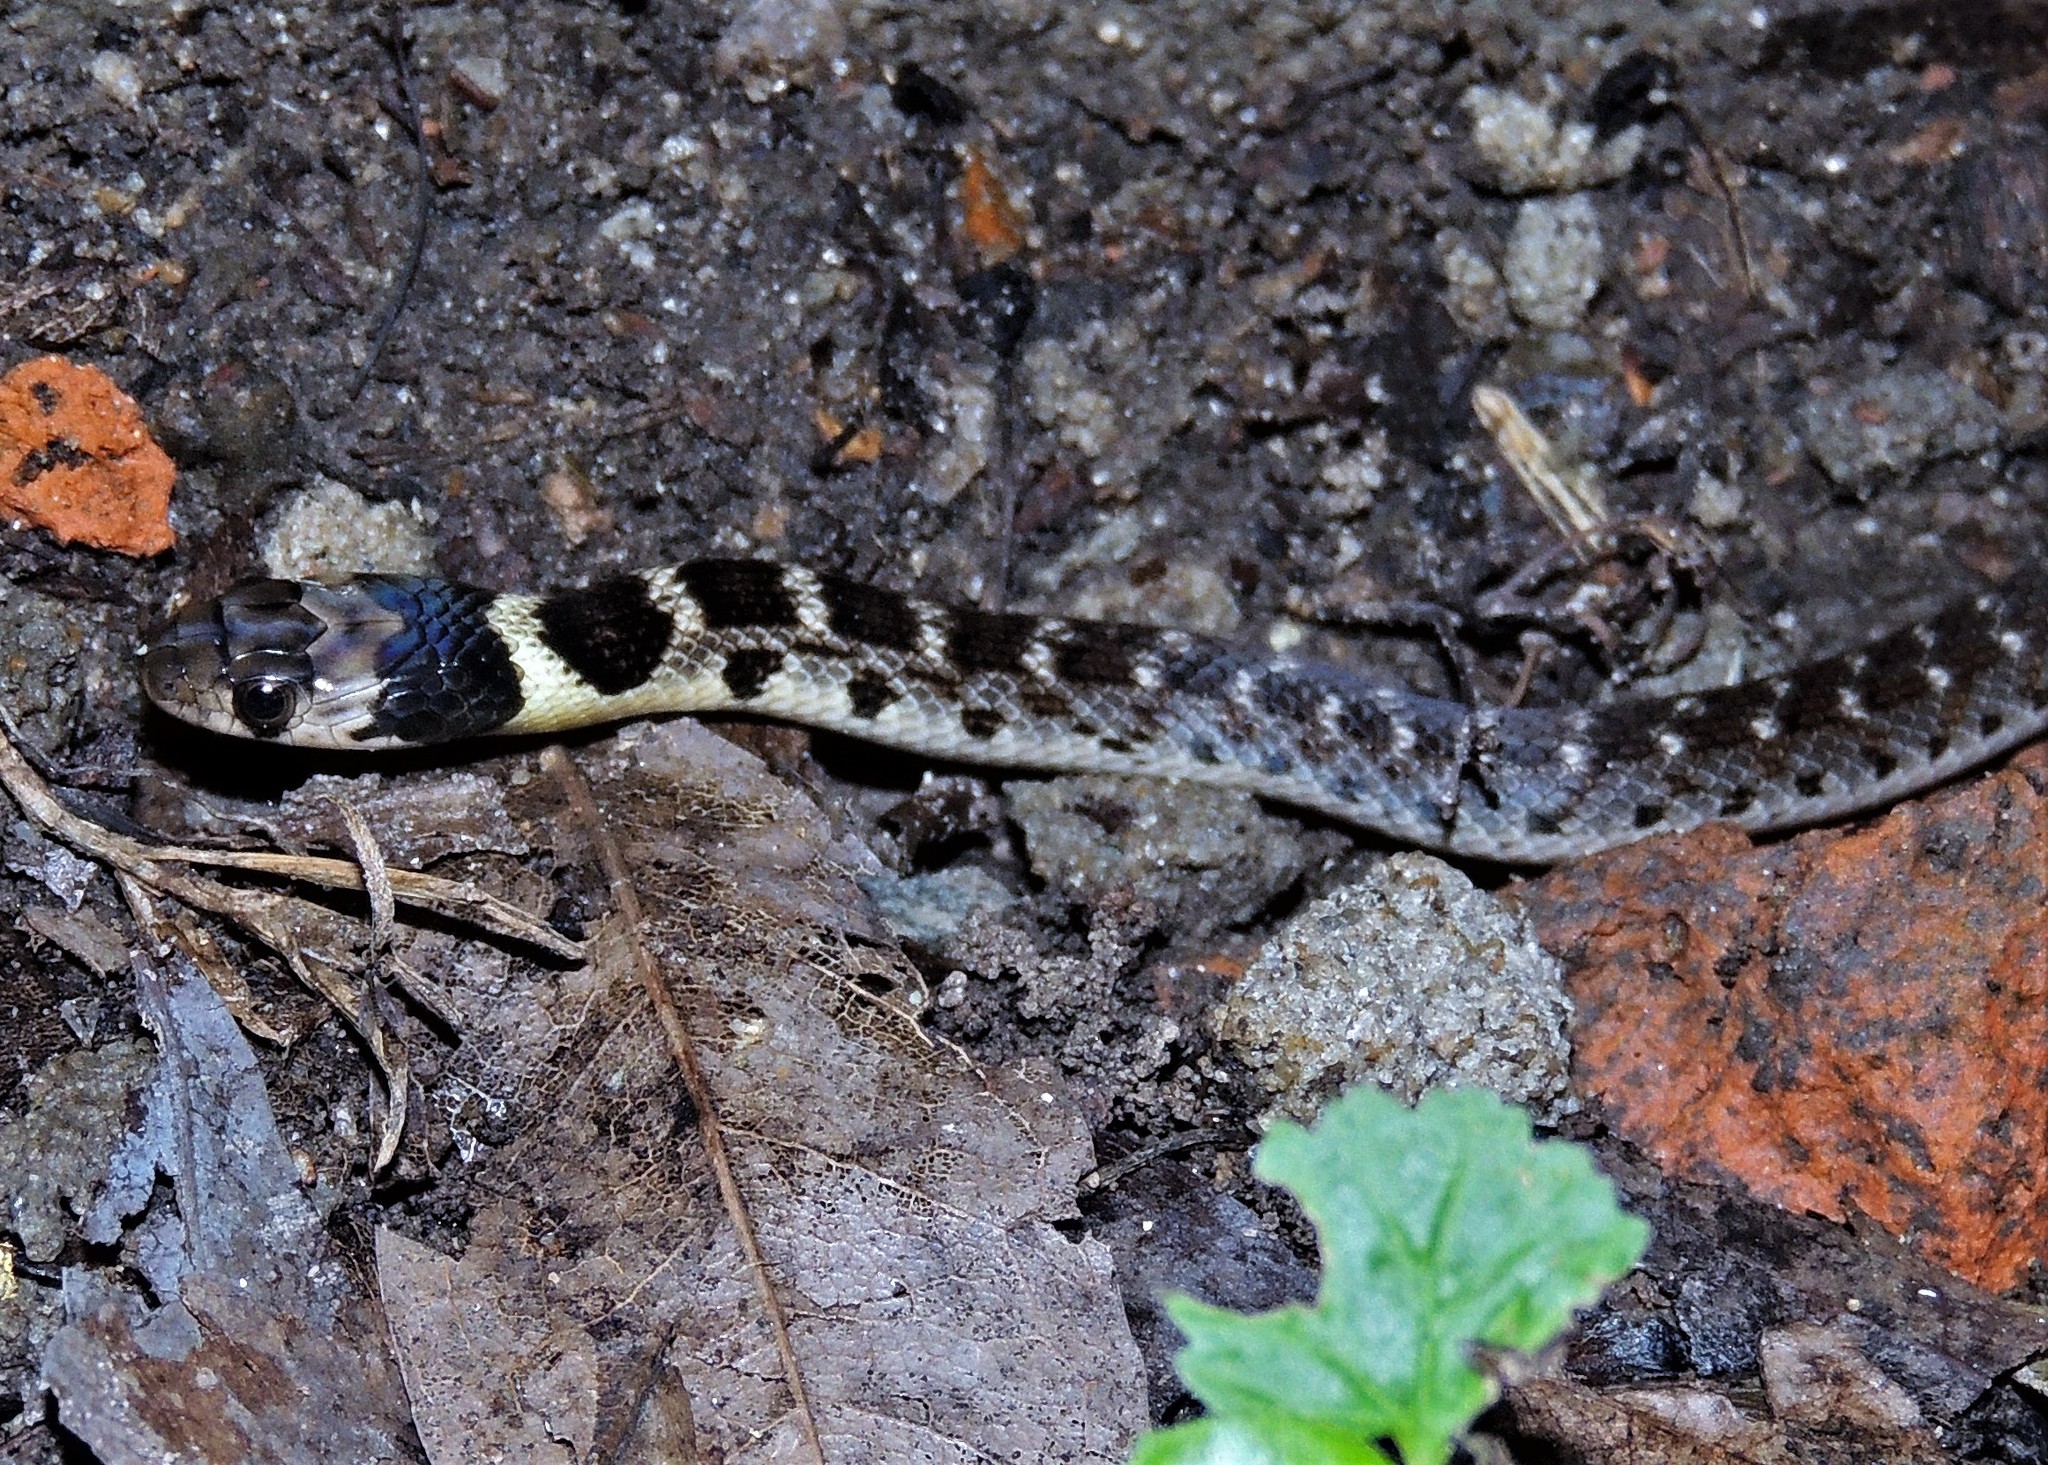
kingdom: Animalia
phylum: Chordata
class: Squamata
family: Colubridae
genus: Erythrolamprus
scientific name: Erythrolamprus poecilogyrus
